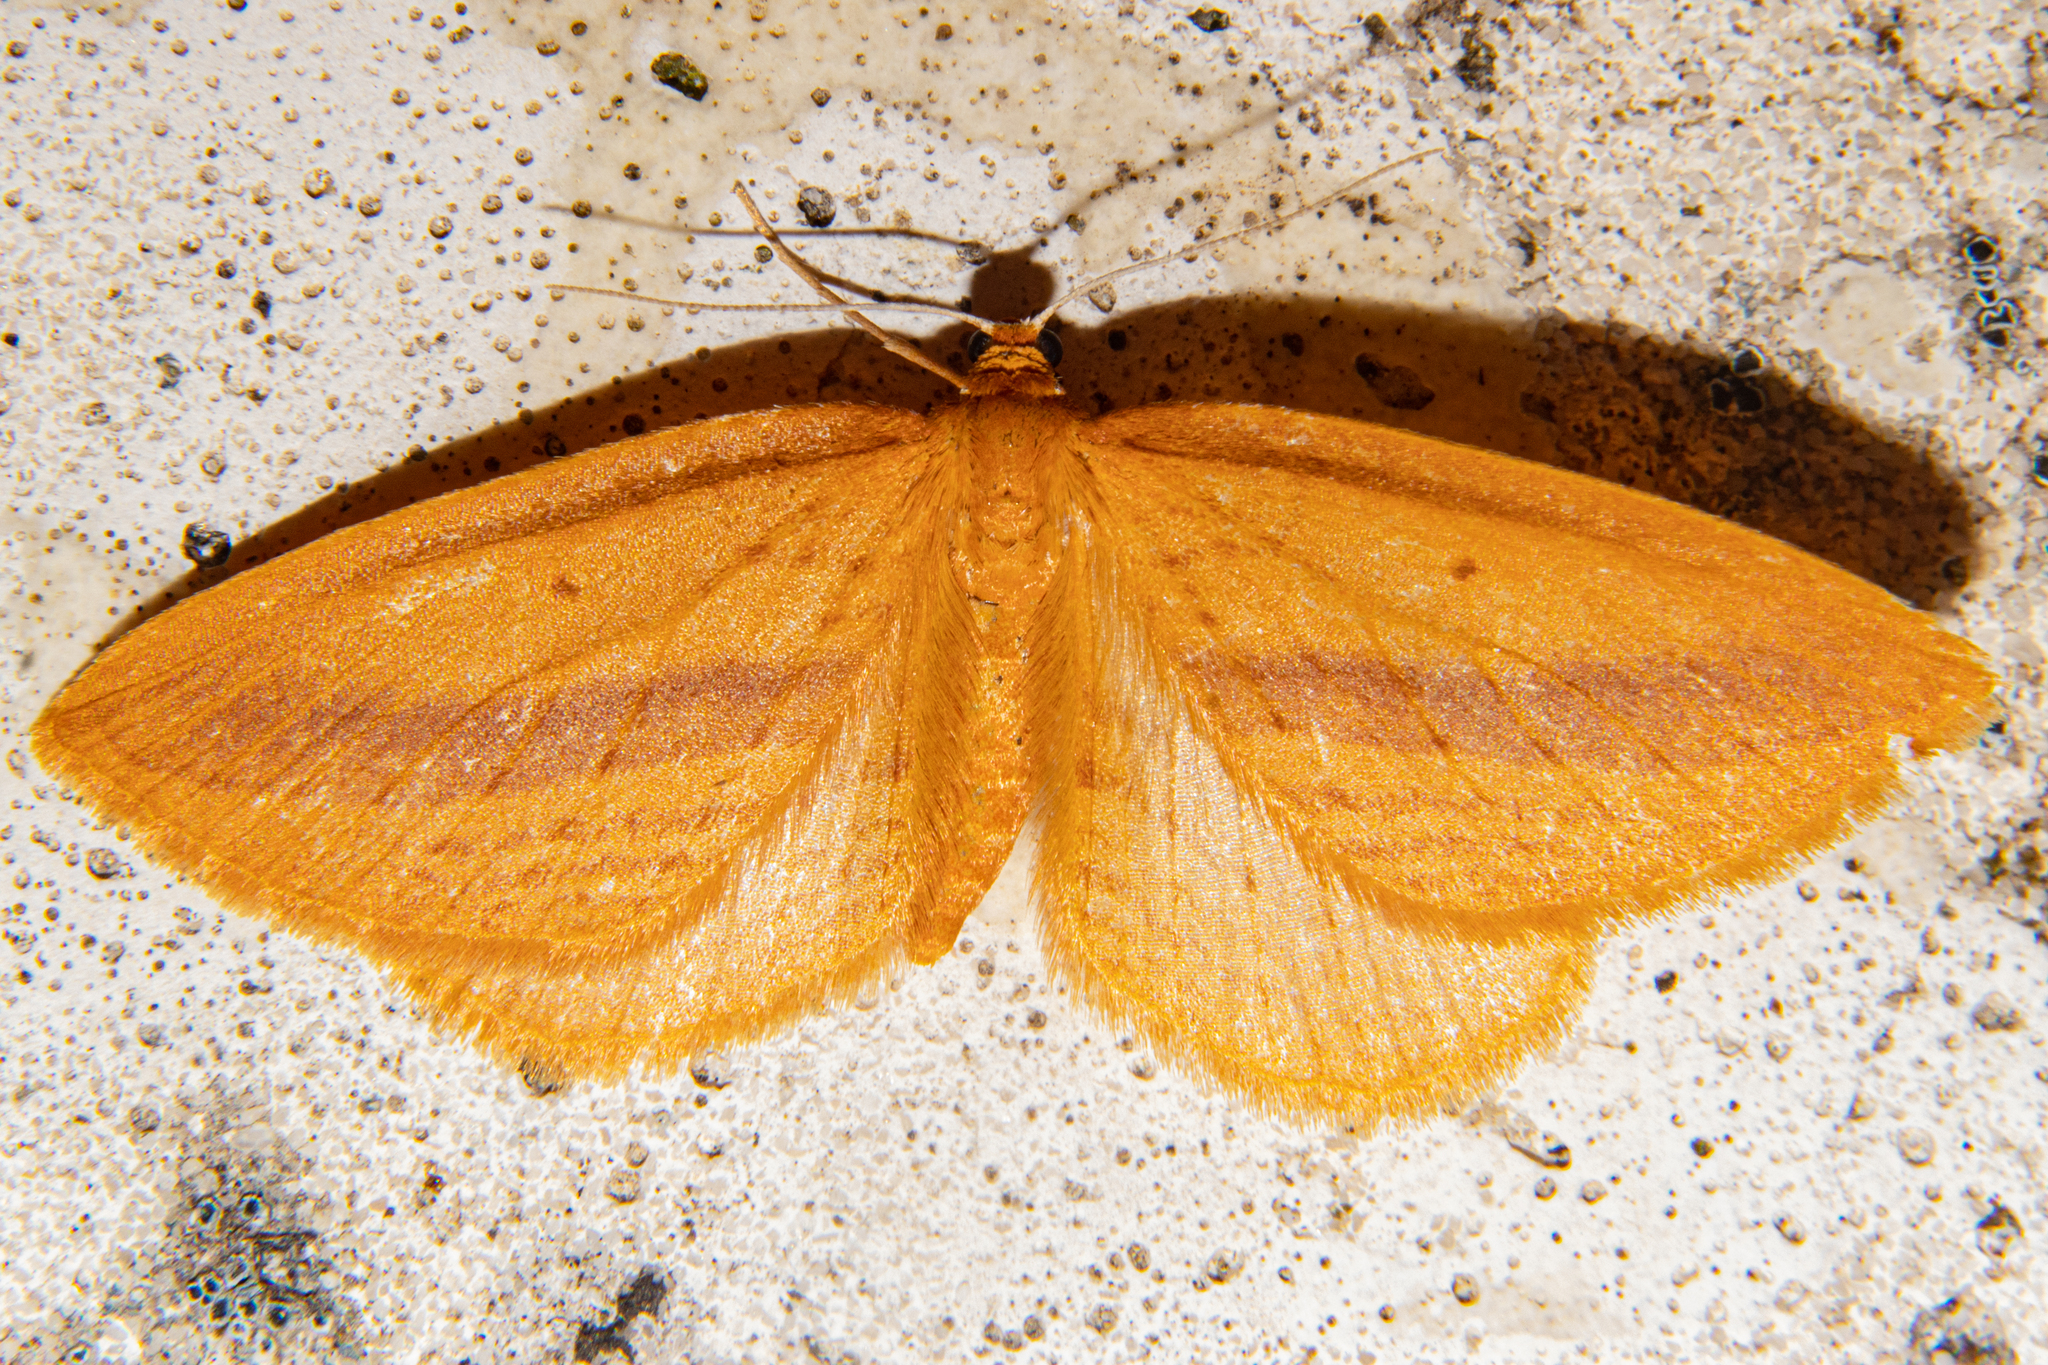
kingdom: Animalia
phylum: Arthropoda
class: Insecta
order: Lepidoptera
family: Geometridae
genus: Epiphryne
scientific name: Epiphryne charidema
